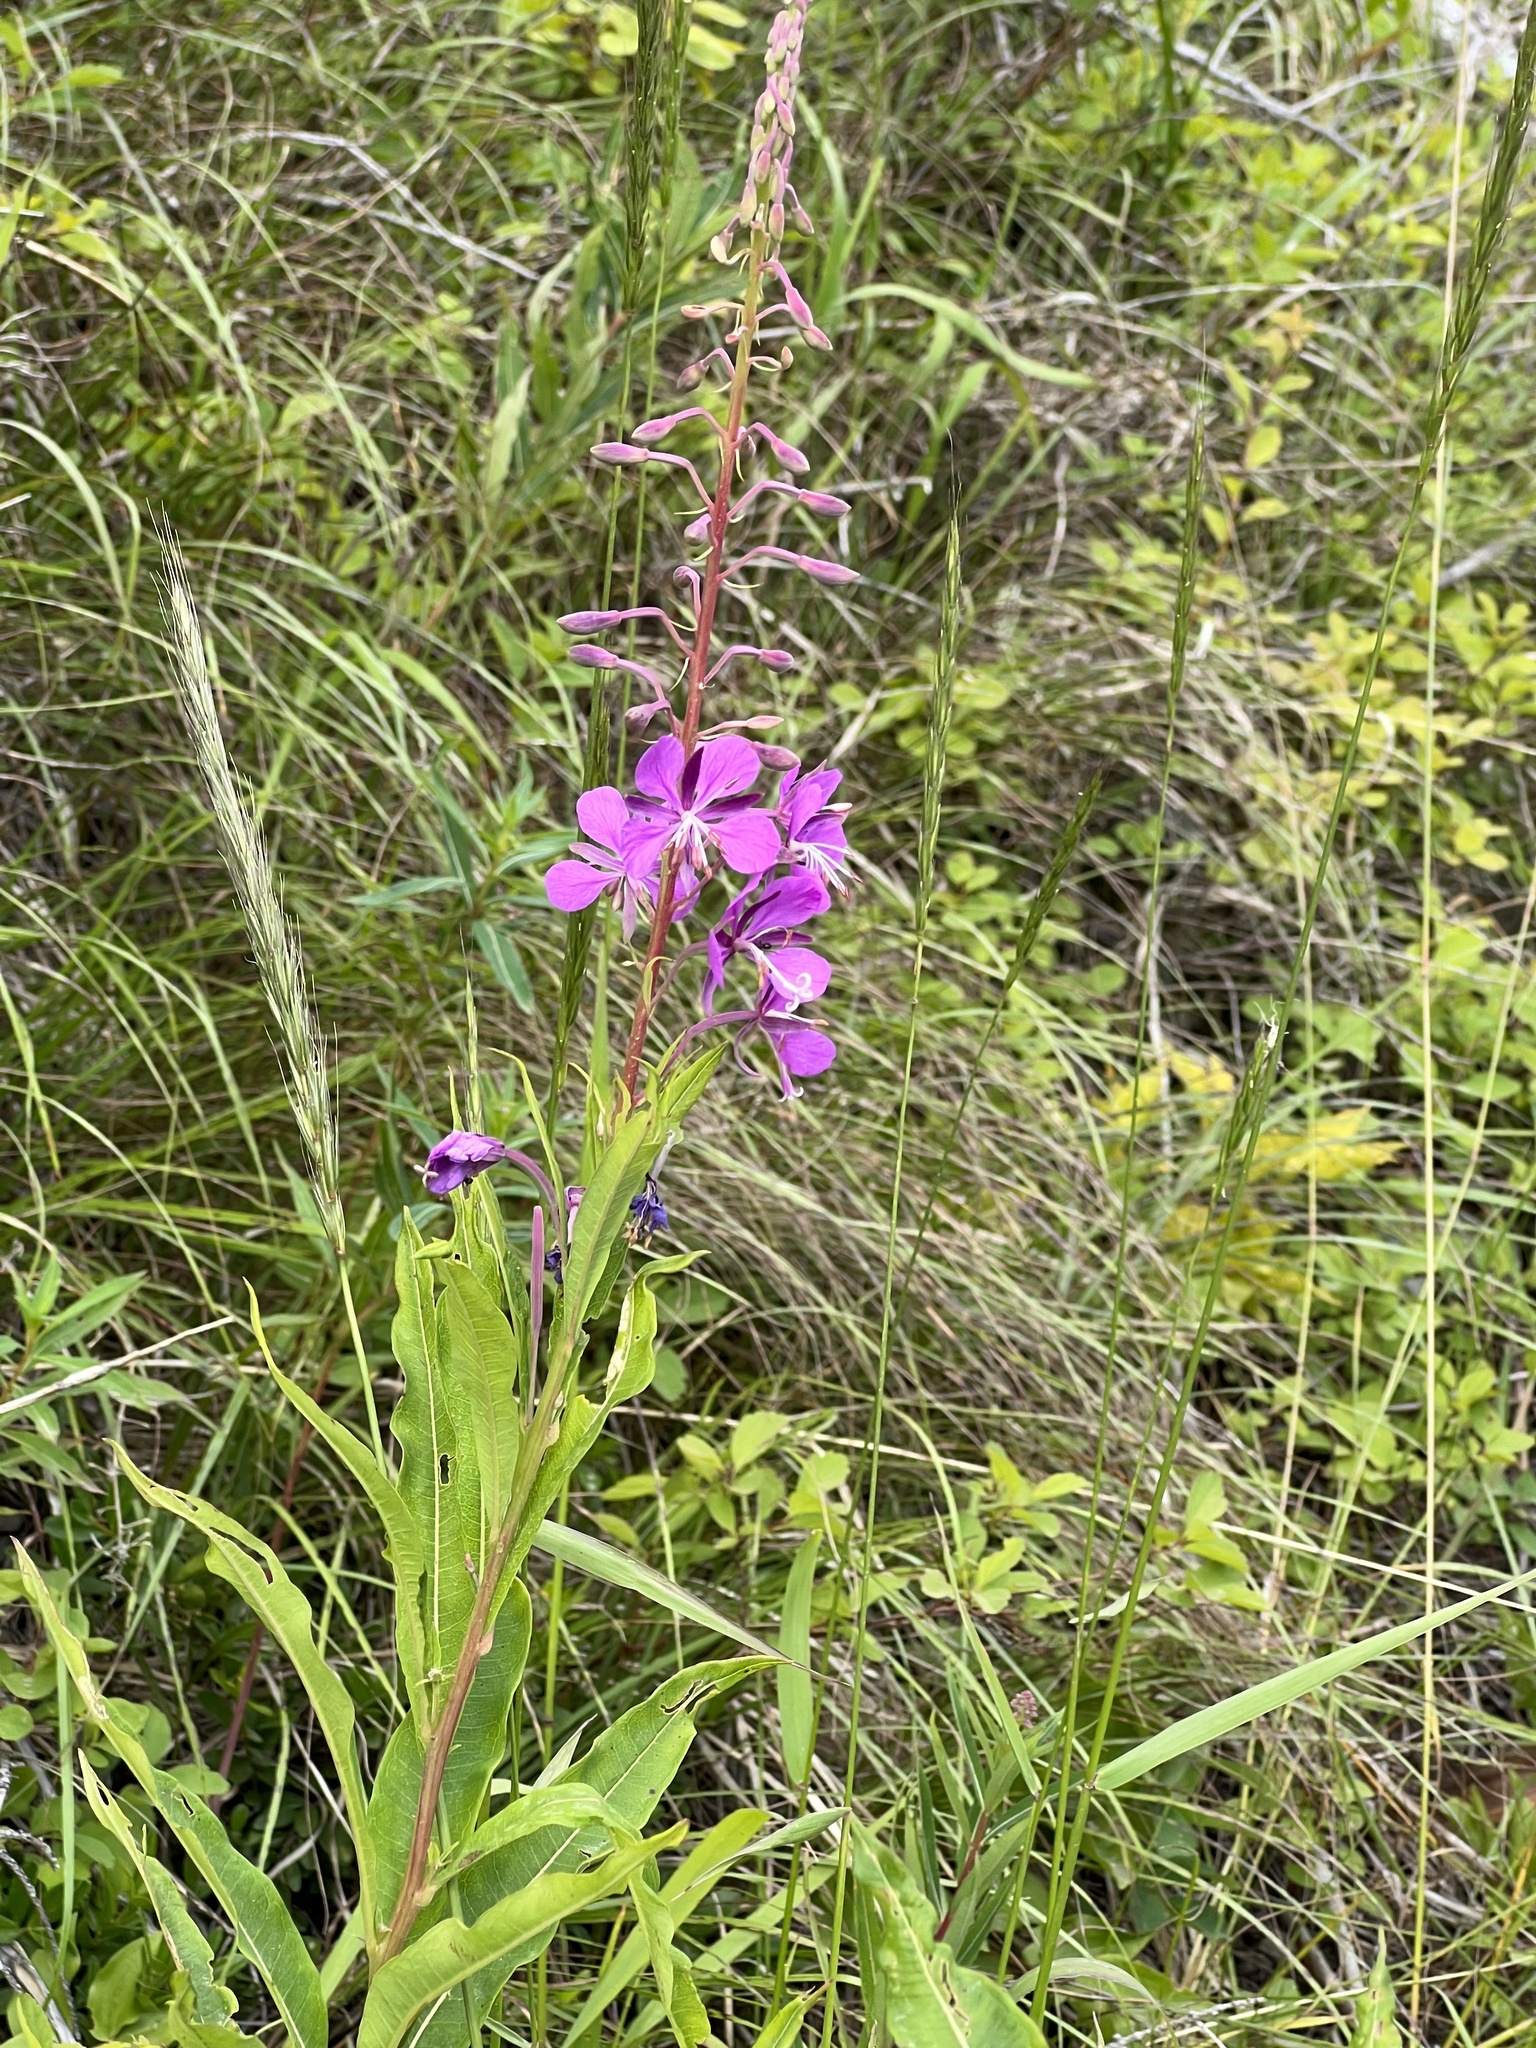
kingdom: Plantae
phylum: Tracheophyta
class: Magnoliopsida
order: Myrtales
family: Onagraceae
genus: Chamaenerion
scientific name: Chamaenerion angustifolium
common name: Fireweed
